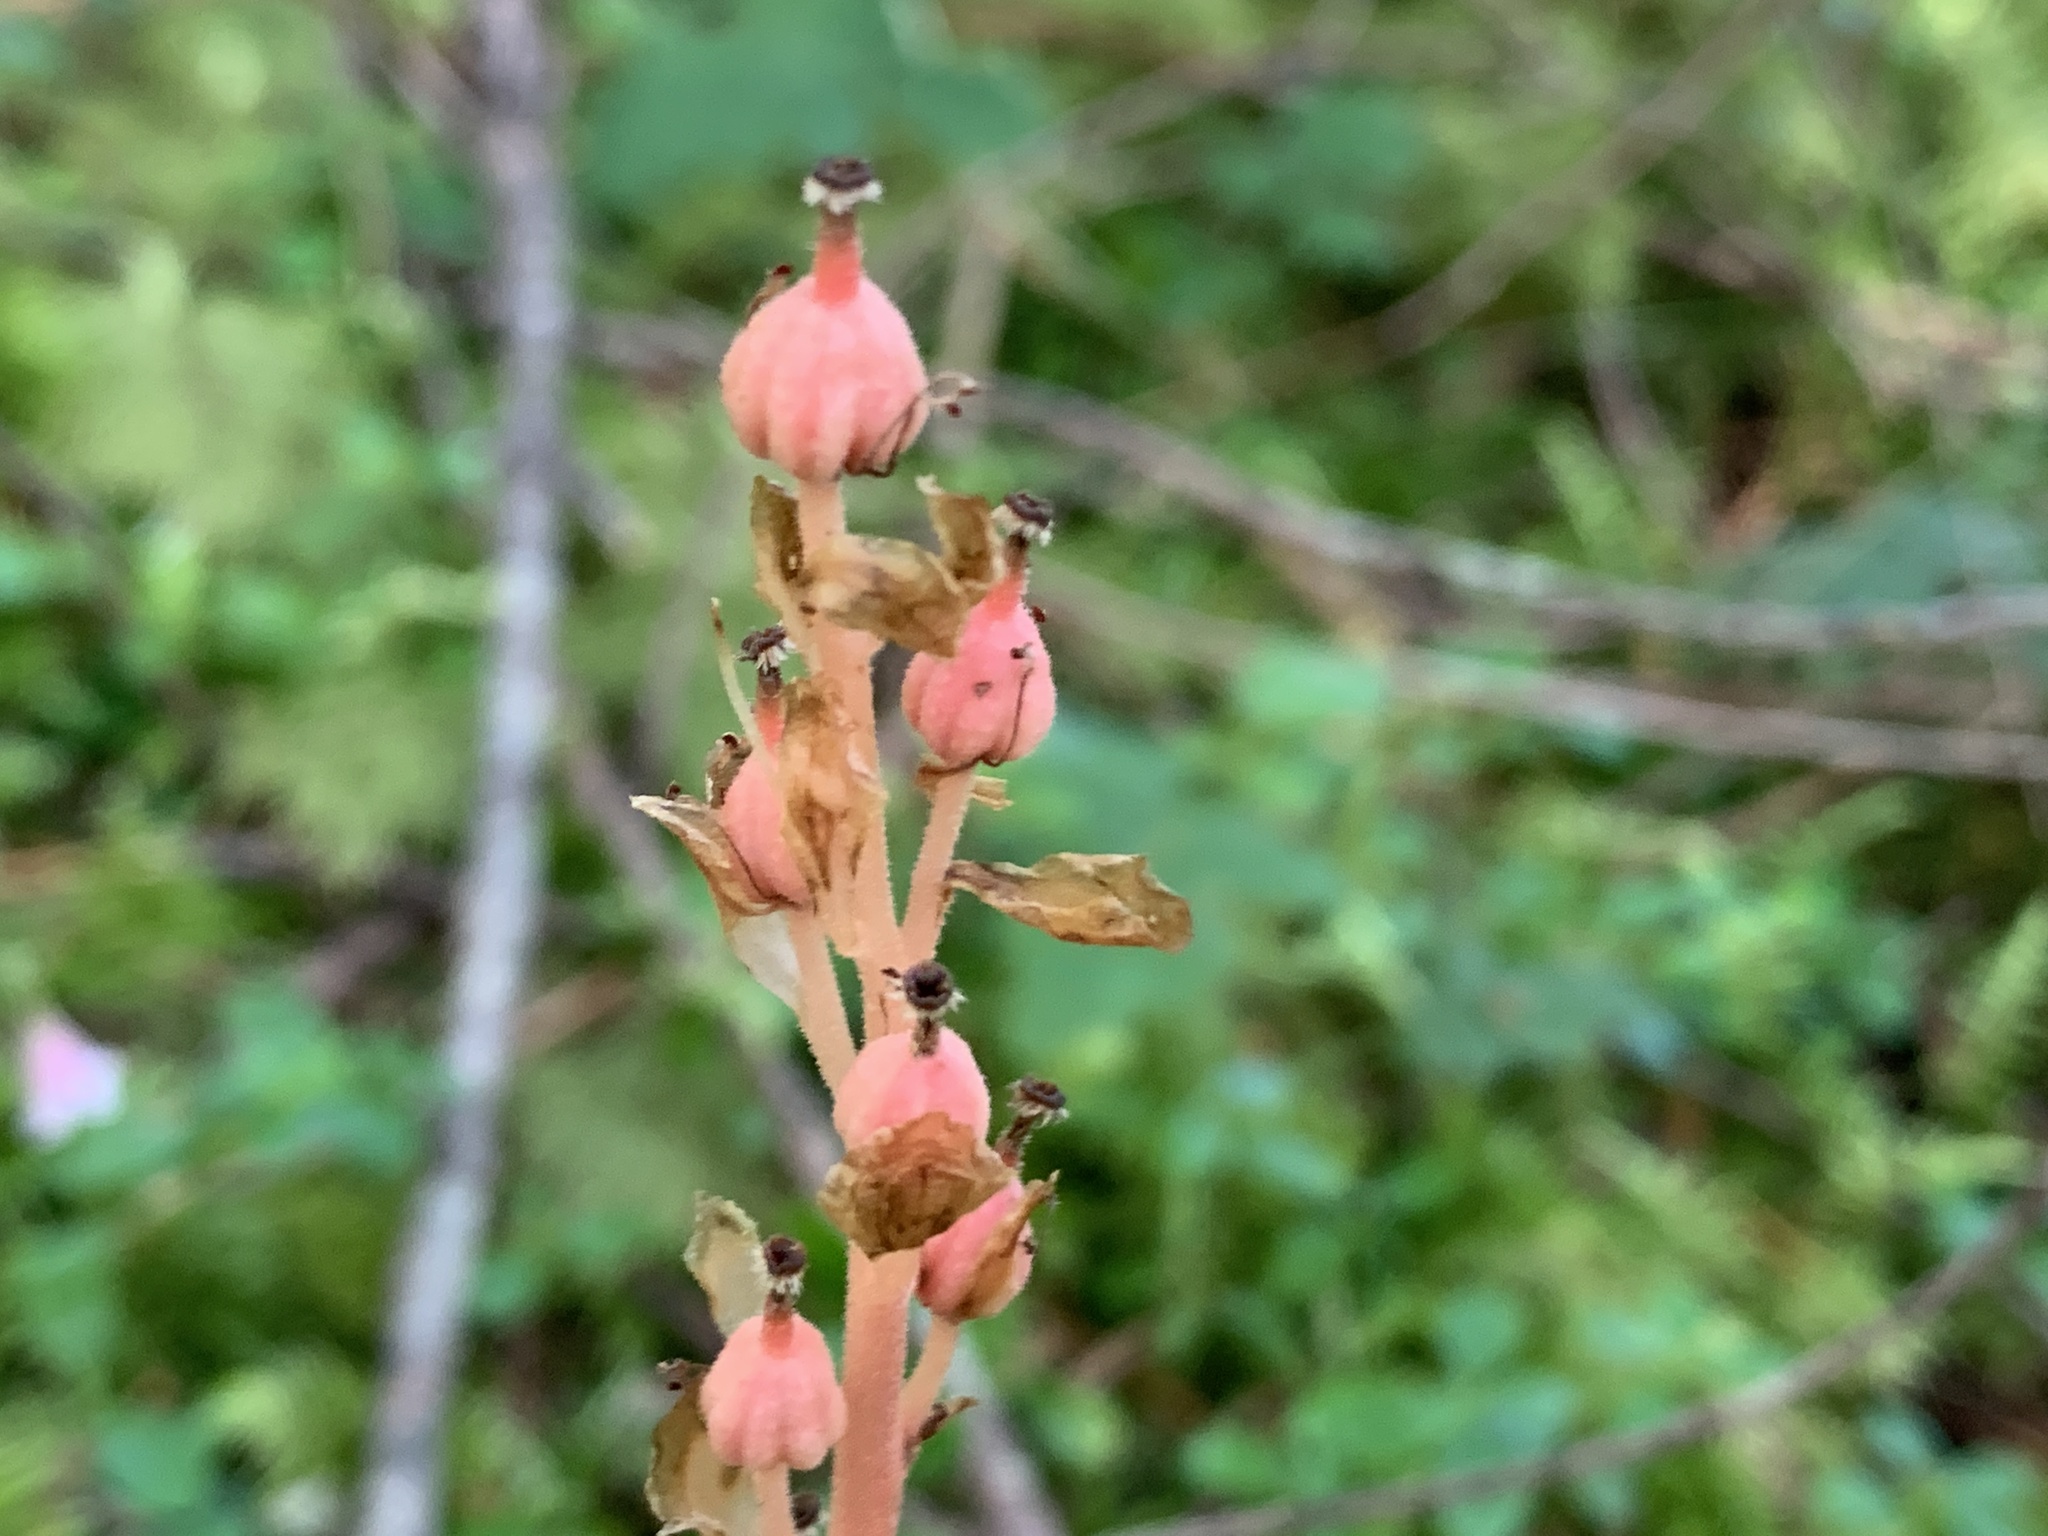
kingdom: Plantae
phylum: Tracheophyta
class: Magnoliopsida
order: Ericales
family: Ericaceae
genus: Hypopitys
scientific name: Hypopitys monotropa
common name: Yellow bird's-nest
